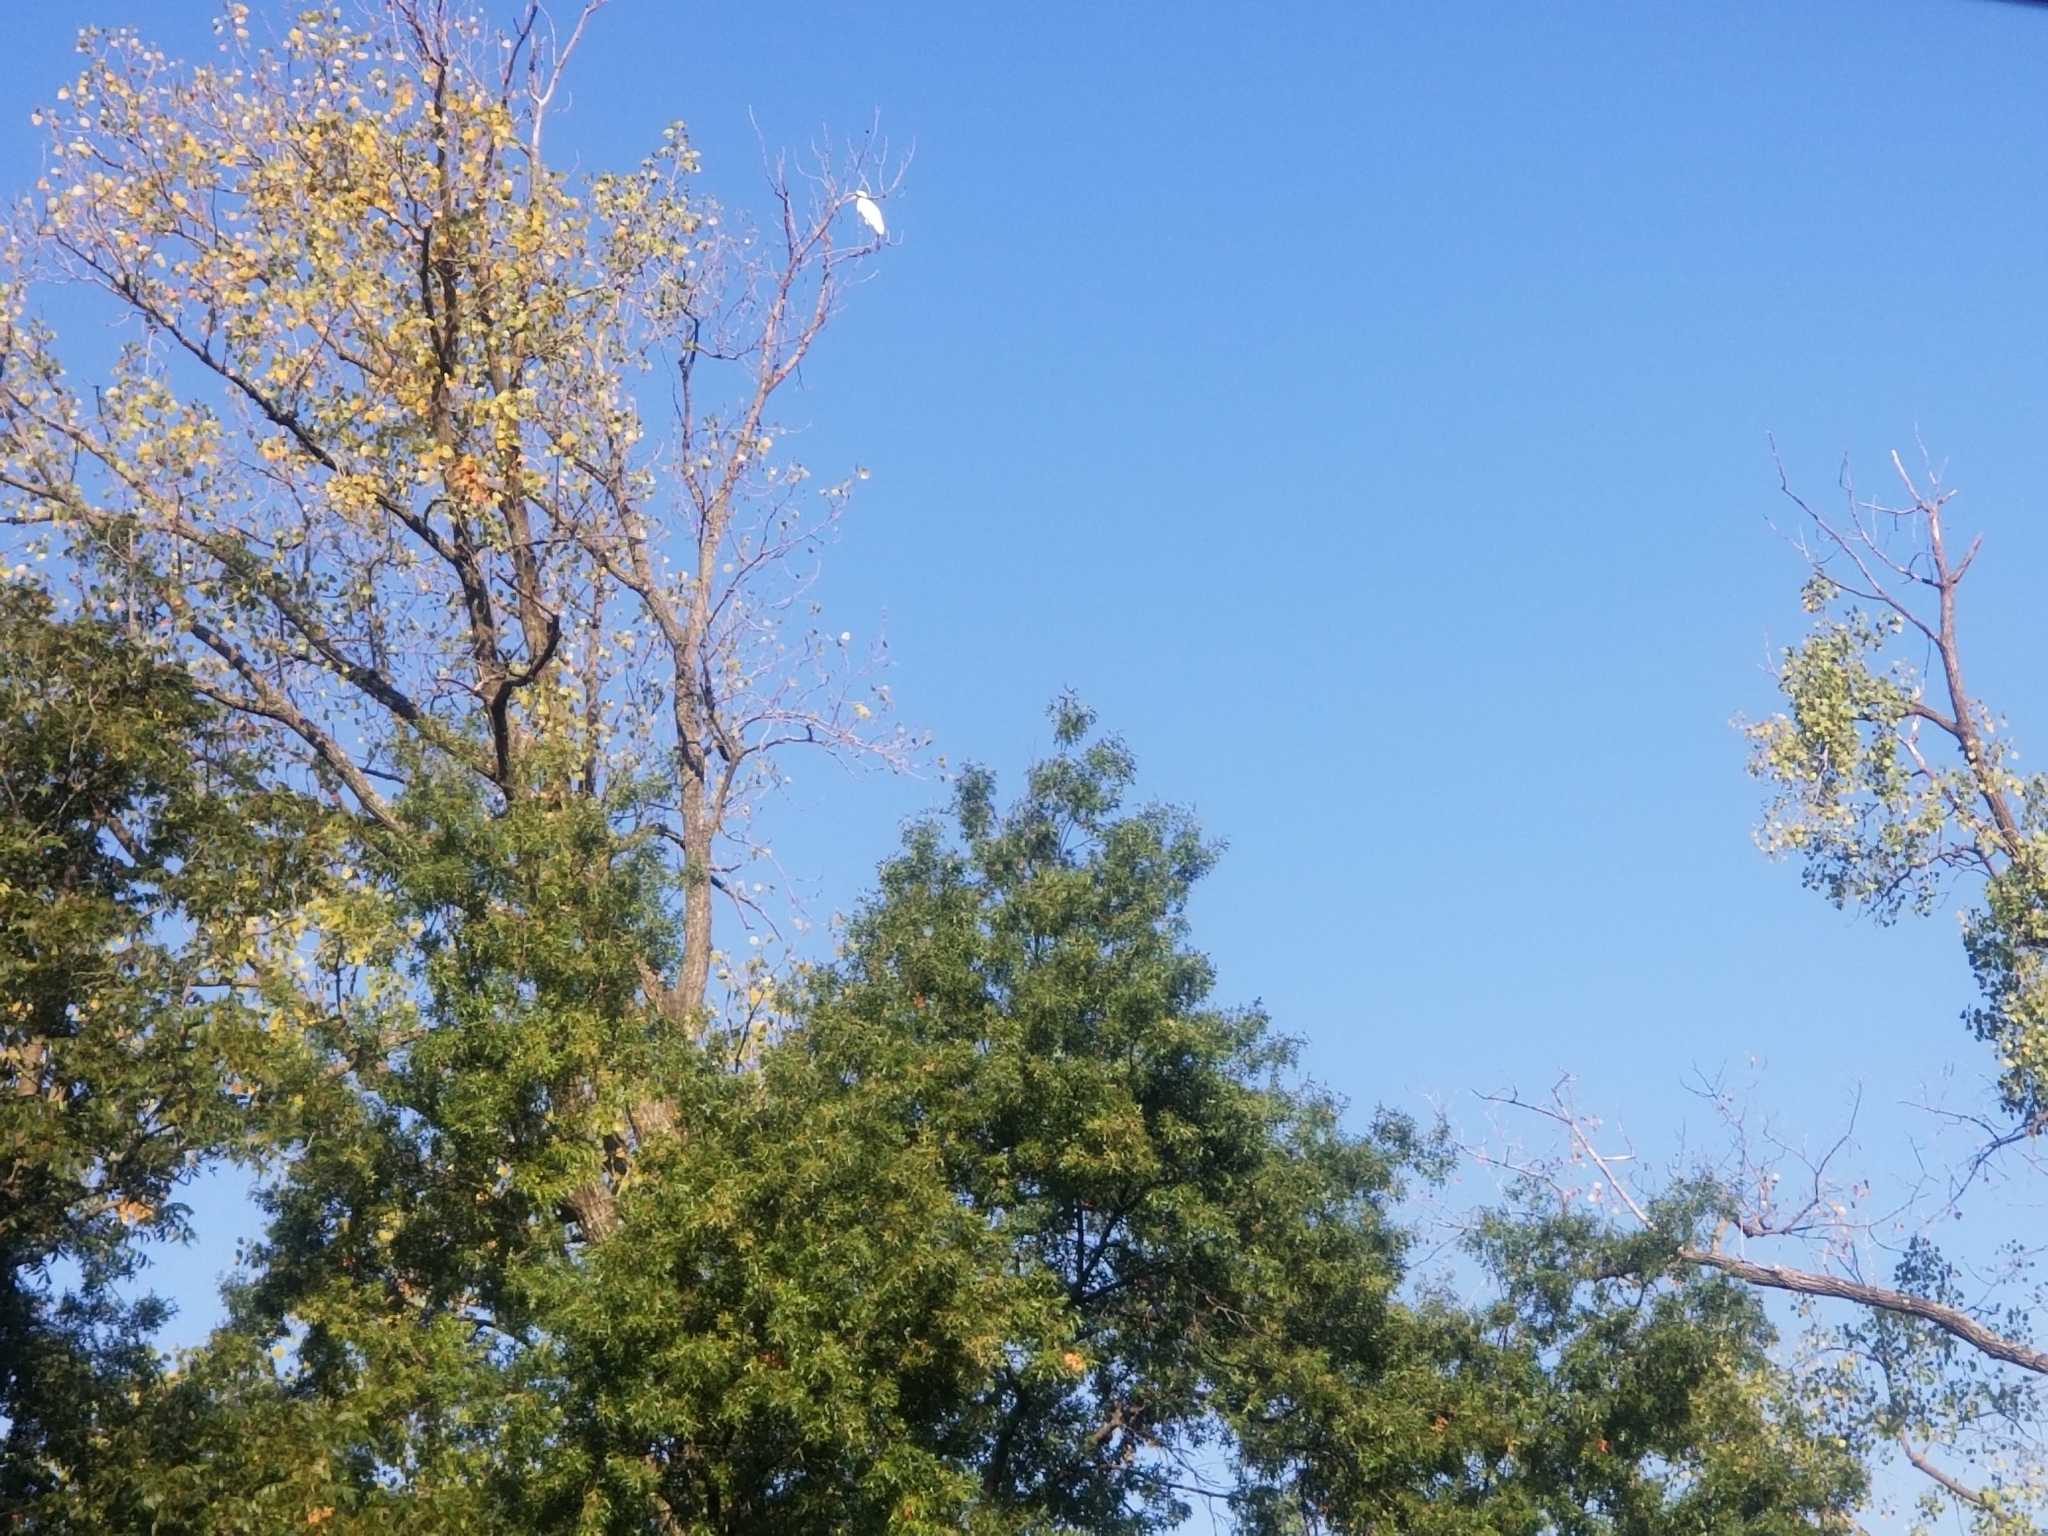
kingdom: Animalia
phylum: Chordata
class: Aves
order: Pelecaniformes
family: Ardeidae
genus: Ardea
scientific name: Ardea alba
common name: Great egret
